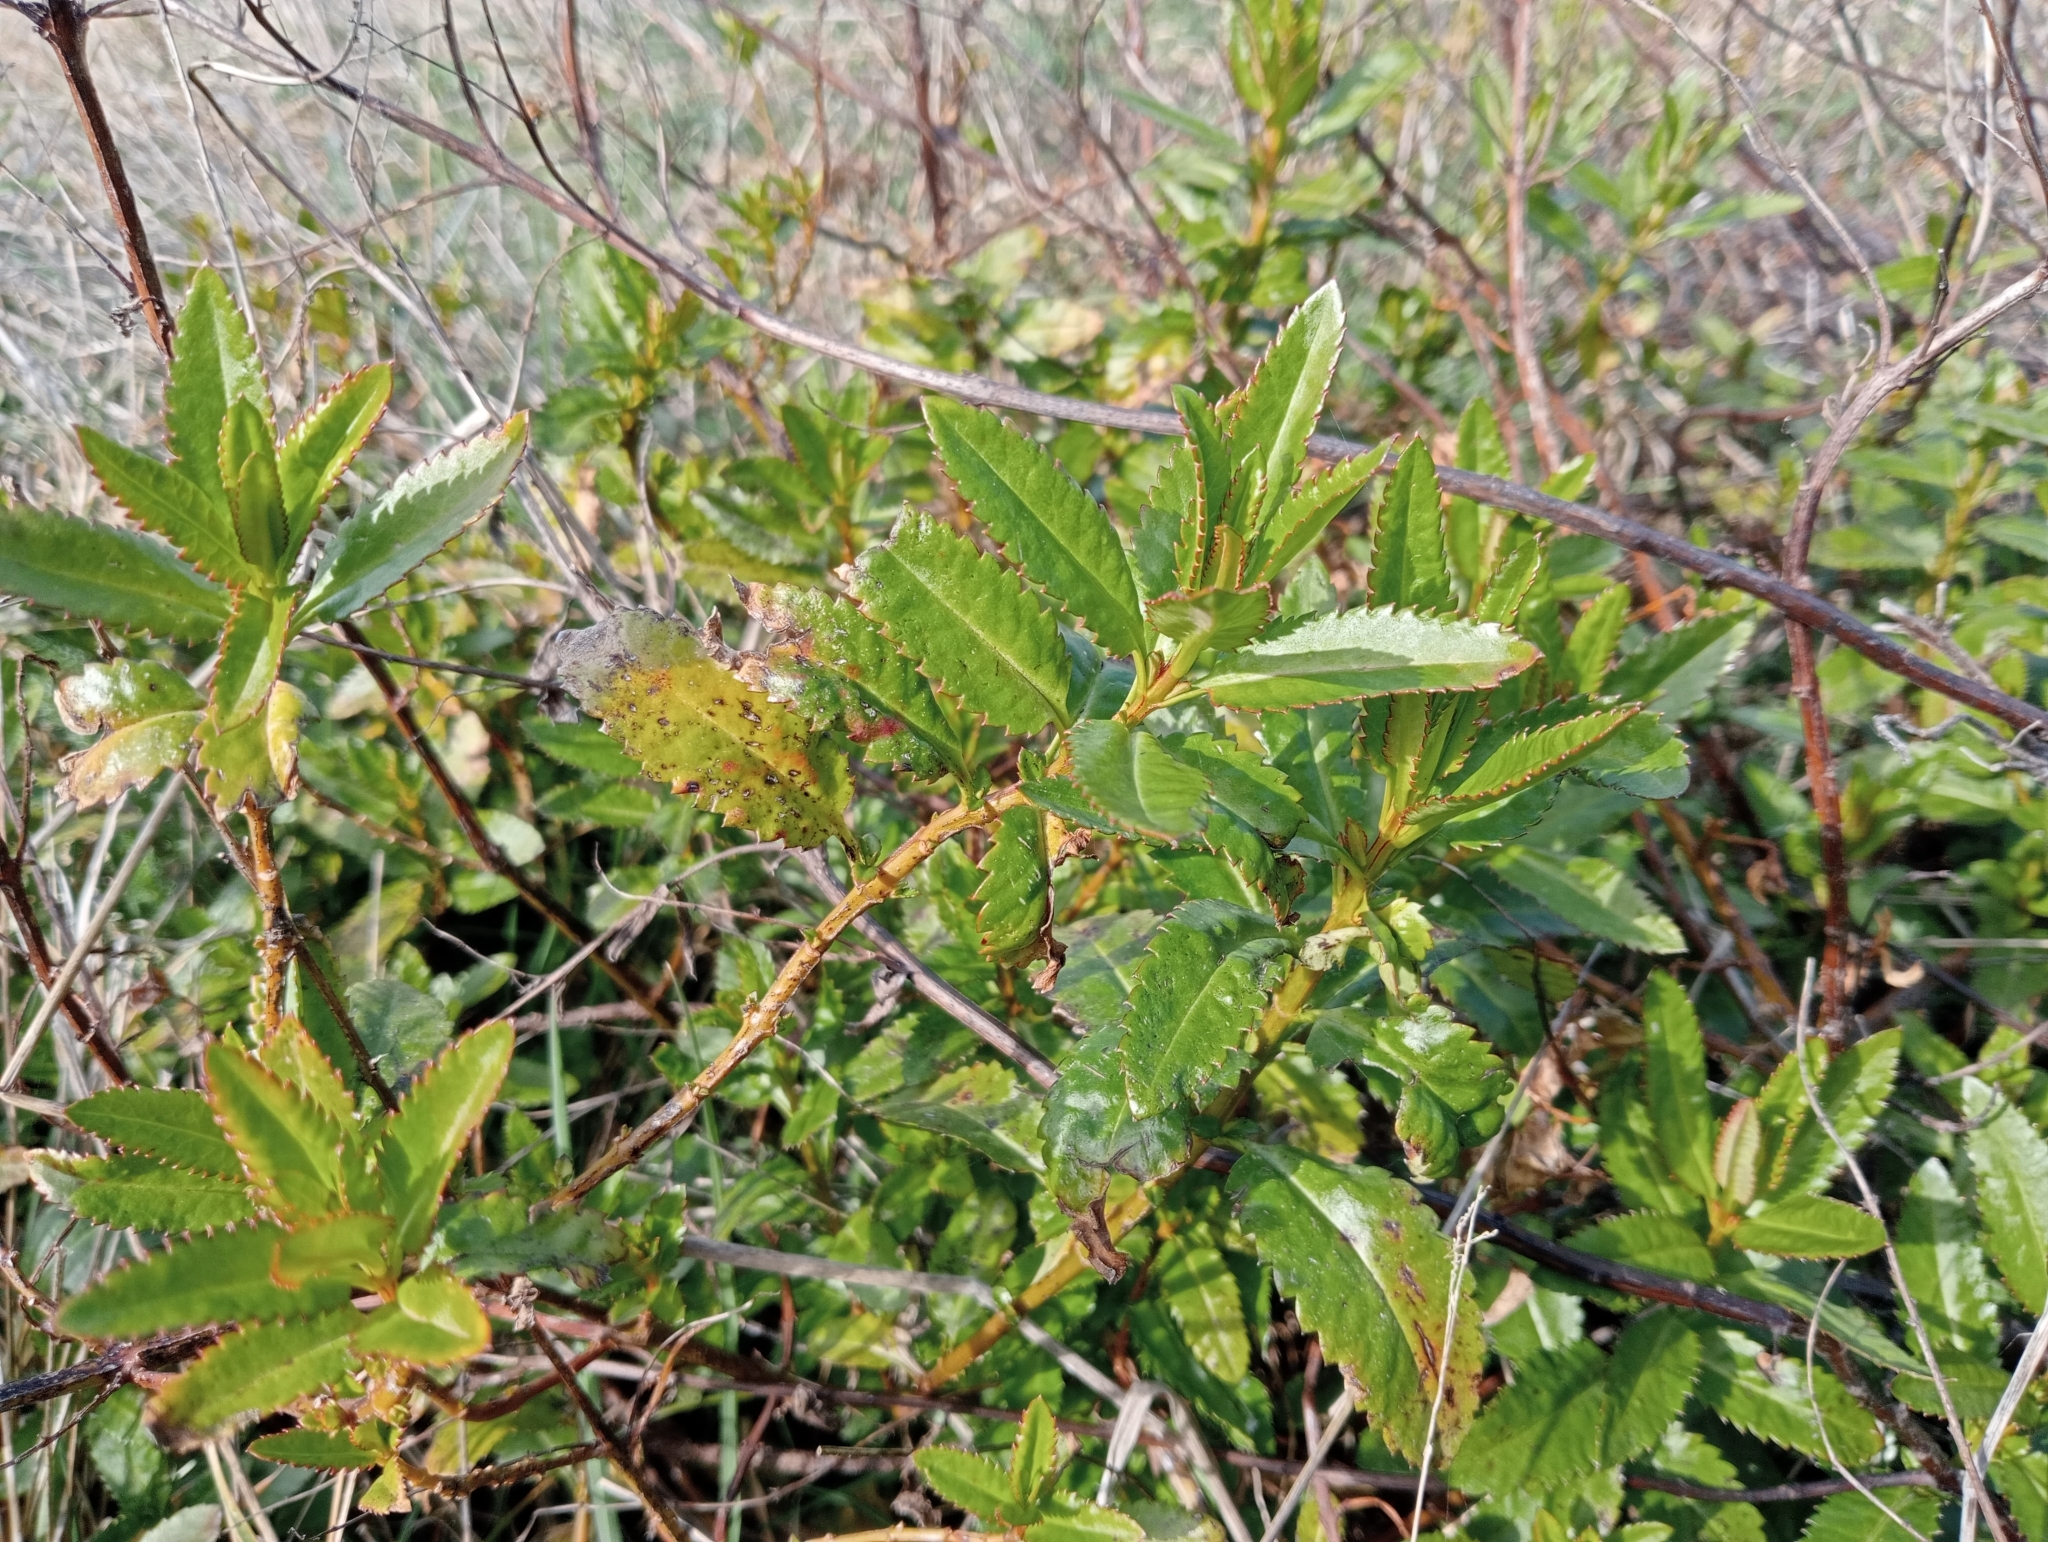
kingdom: Plantae
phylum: Tracheophyta
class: Magnoliopsida
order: Saxifragales
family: Haloragaceae
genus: Haloragis
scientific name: Haloragis erecta
